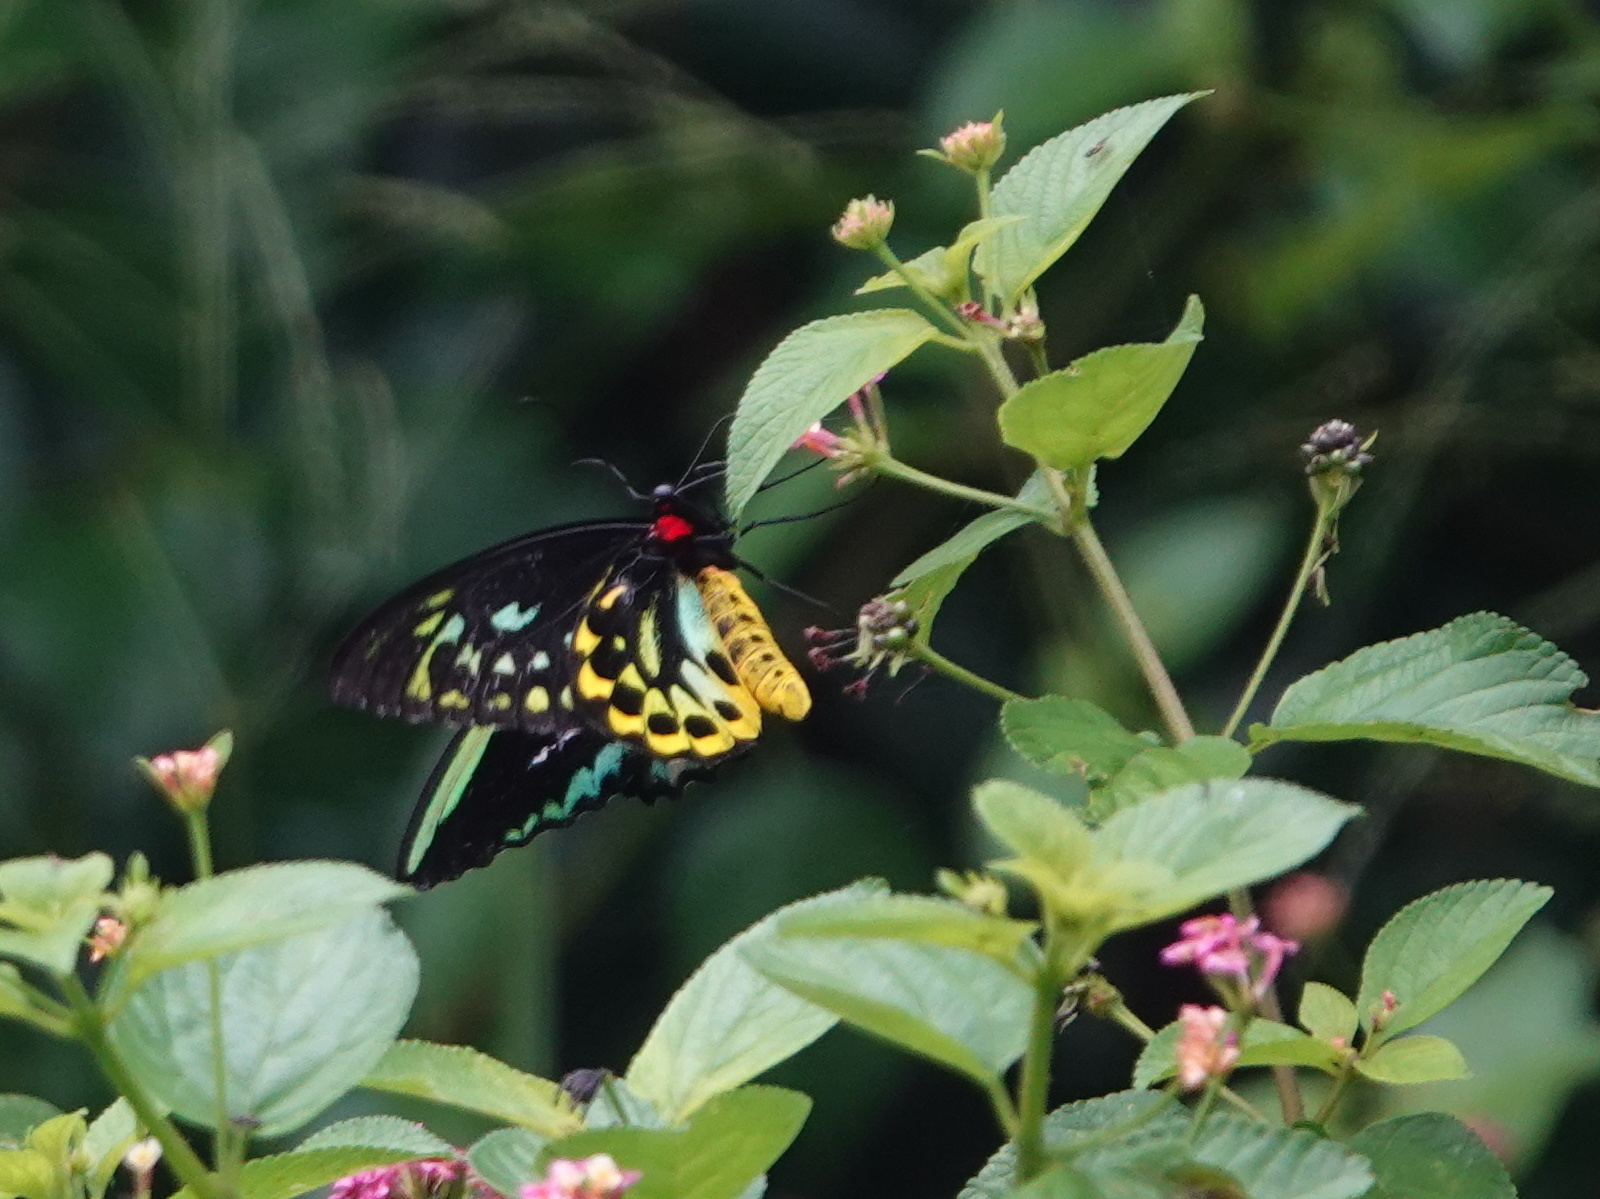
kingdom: Animalia
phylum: Arthropoda
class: Insecta
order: Lepidoptera
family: Papilionidae
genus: Ornithoptera
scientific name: Ornithoptera euphorion
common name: Cairns birdwing
